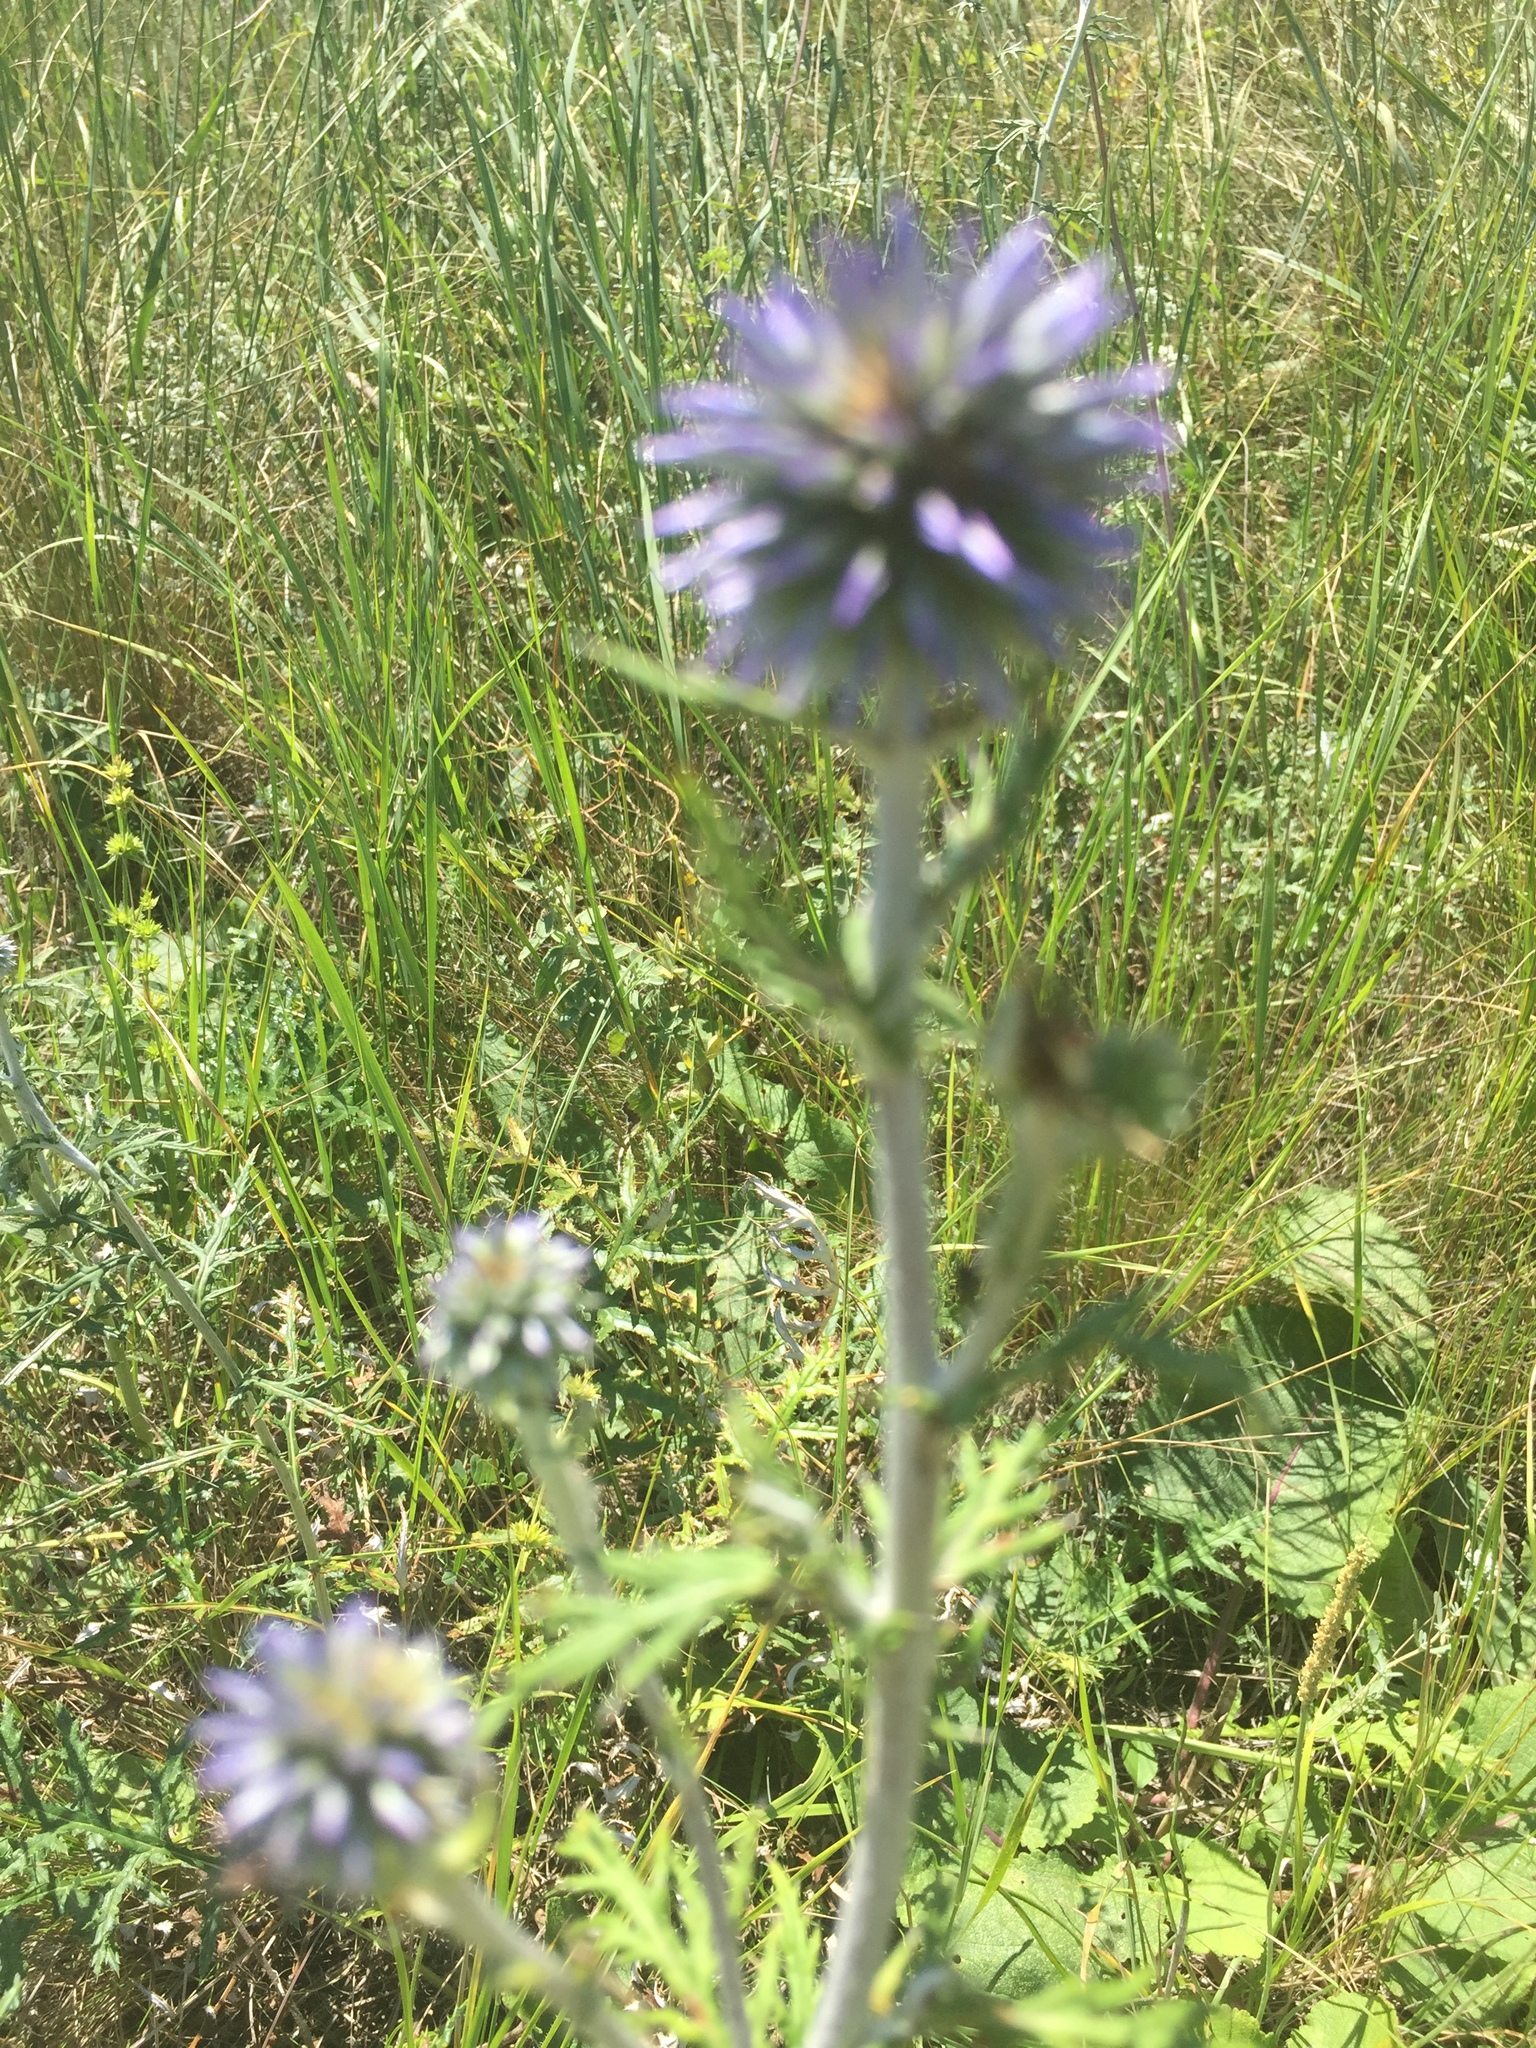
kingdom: Plantae
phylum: Tracheophyta
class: Magnoliopsida
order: Asterales
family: Asteraceae
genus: Echinops
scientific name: Echinops ritro
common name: Globe thistle
